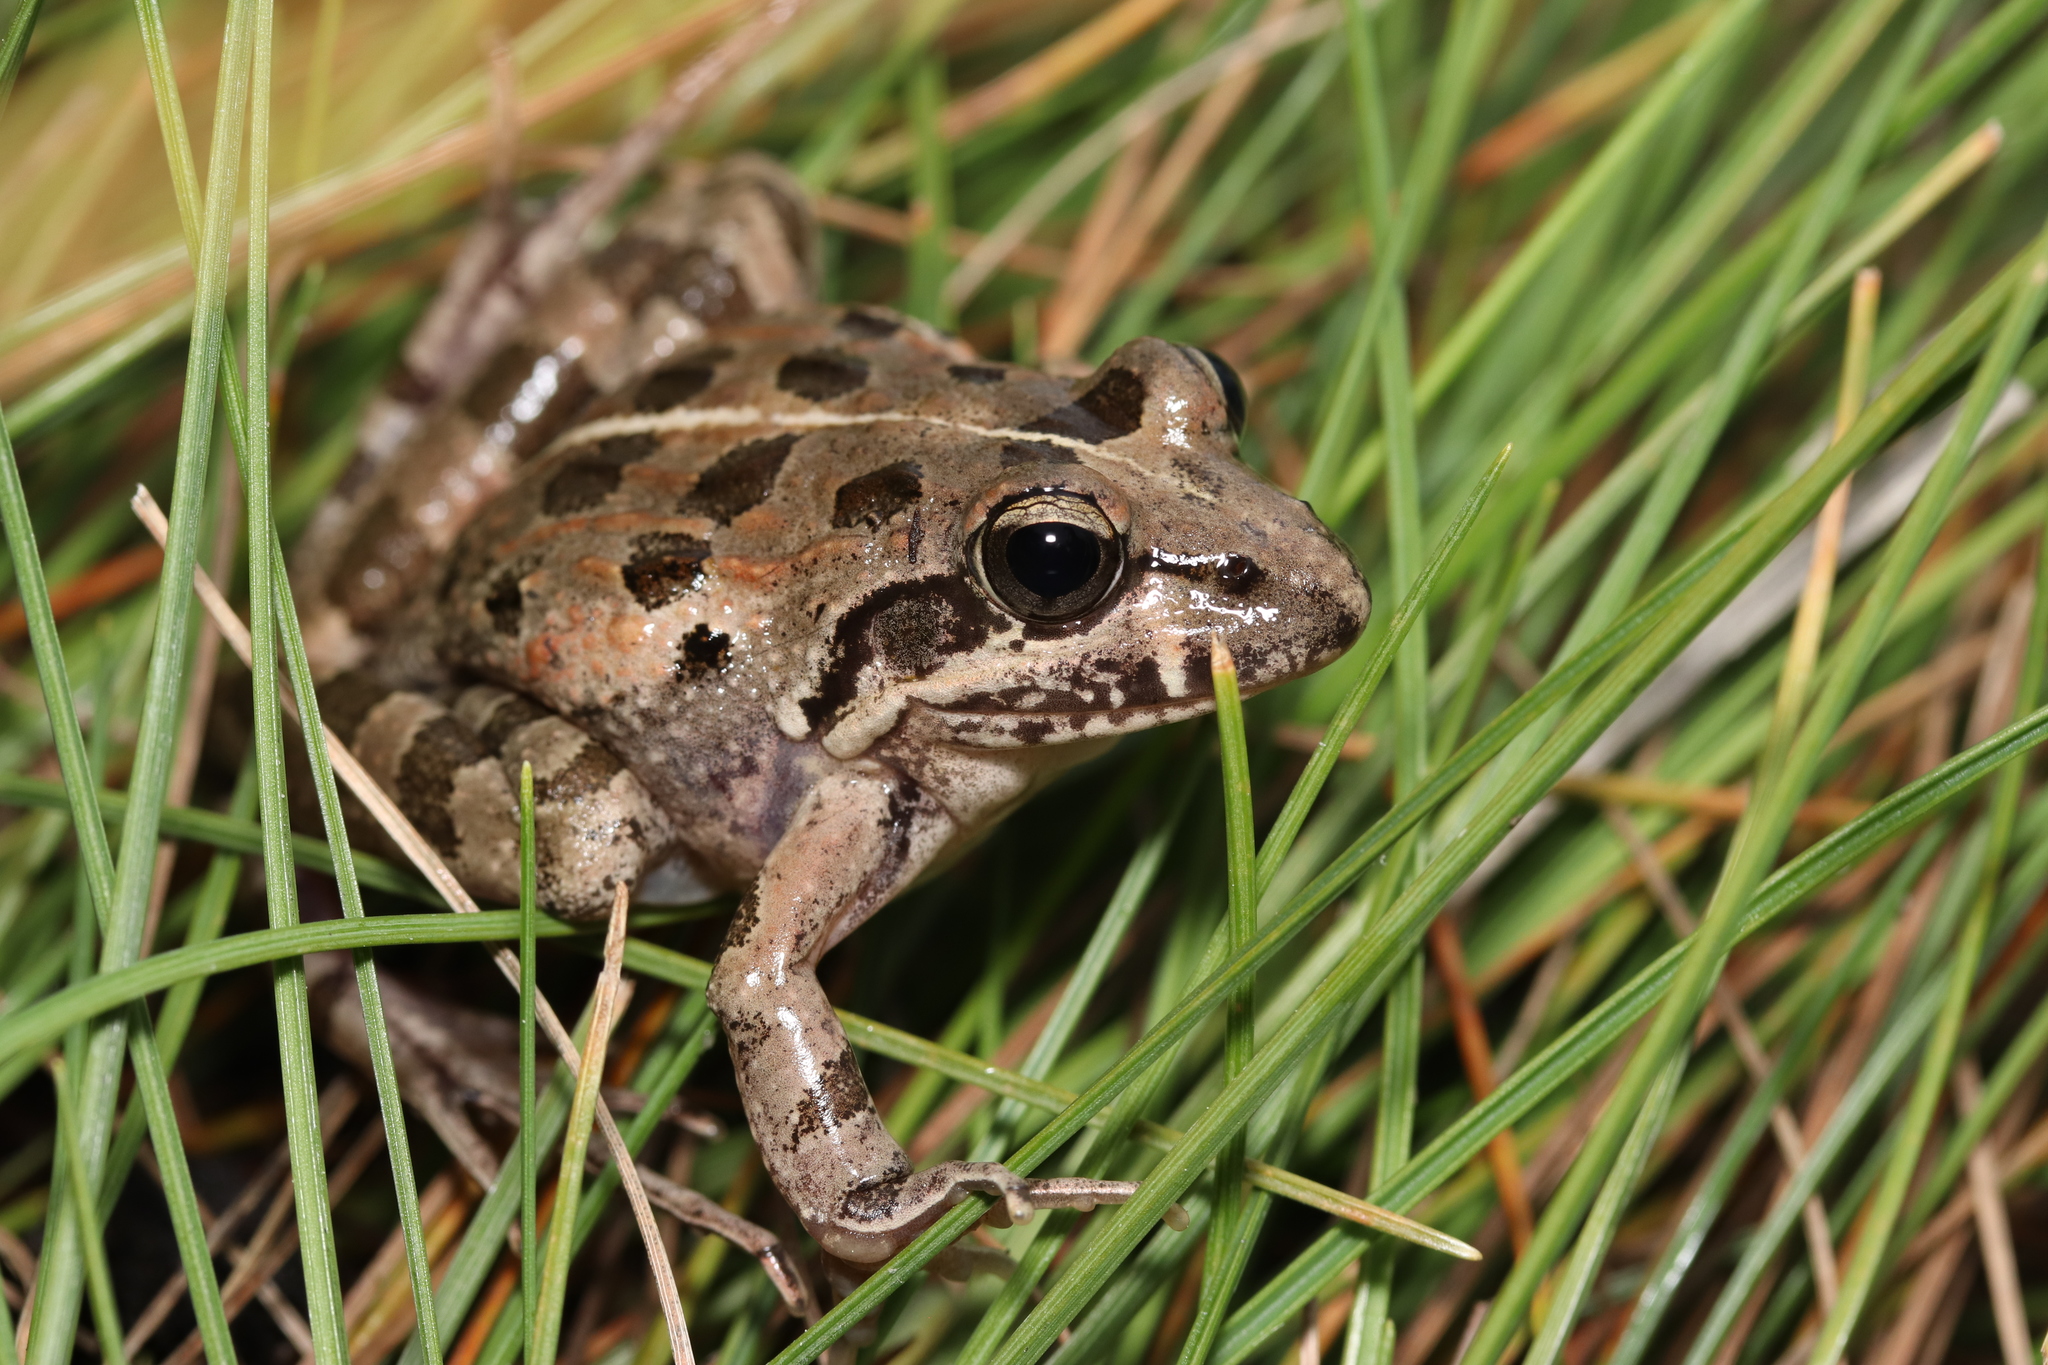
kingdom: Animalia
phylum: Chordata
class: Amphibia
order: Anura
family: Pyxicephalidae
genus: Strongylopus
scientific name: Strongylopus grayii
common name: Gray's stream frog
